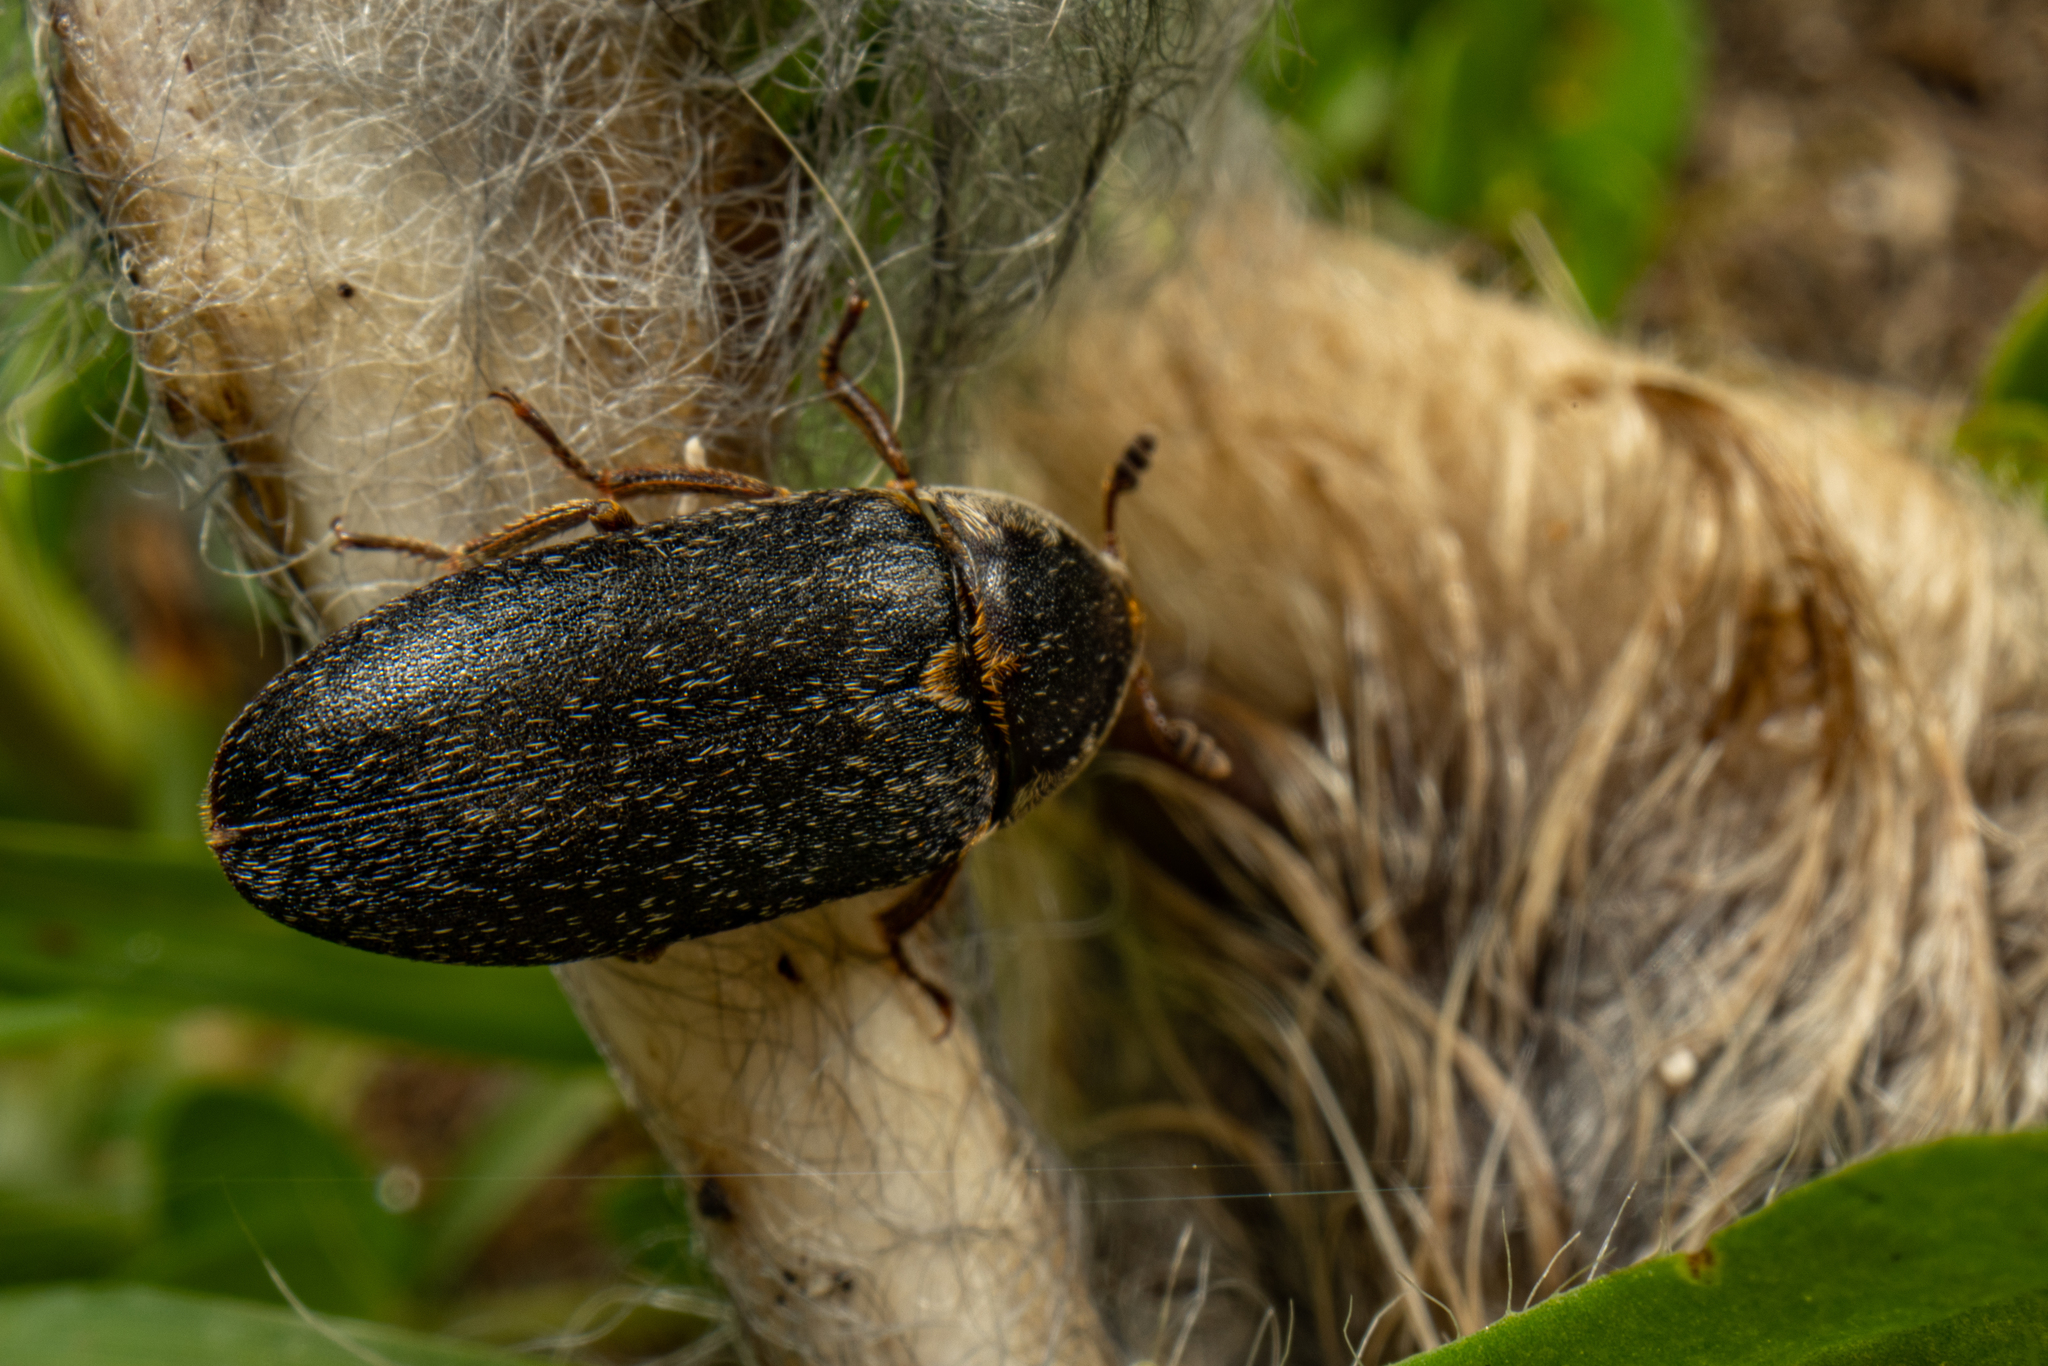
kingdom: Animalia
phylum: Arthropoda
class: Insecta
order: Coleoptera
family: Dermestidae
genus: Dermestes
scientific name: Dermestes maculatus
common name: Hide beetle
